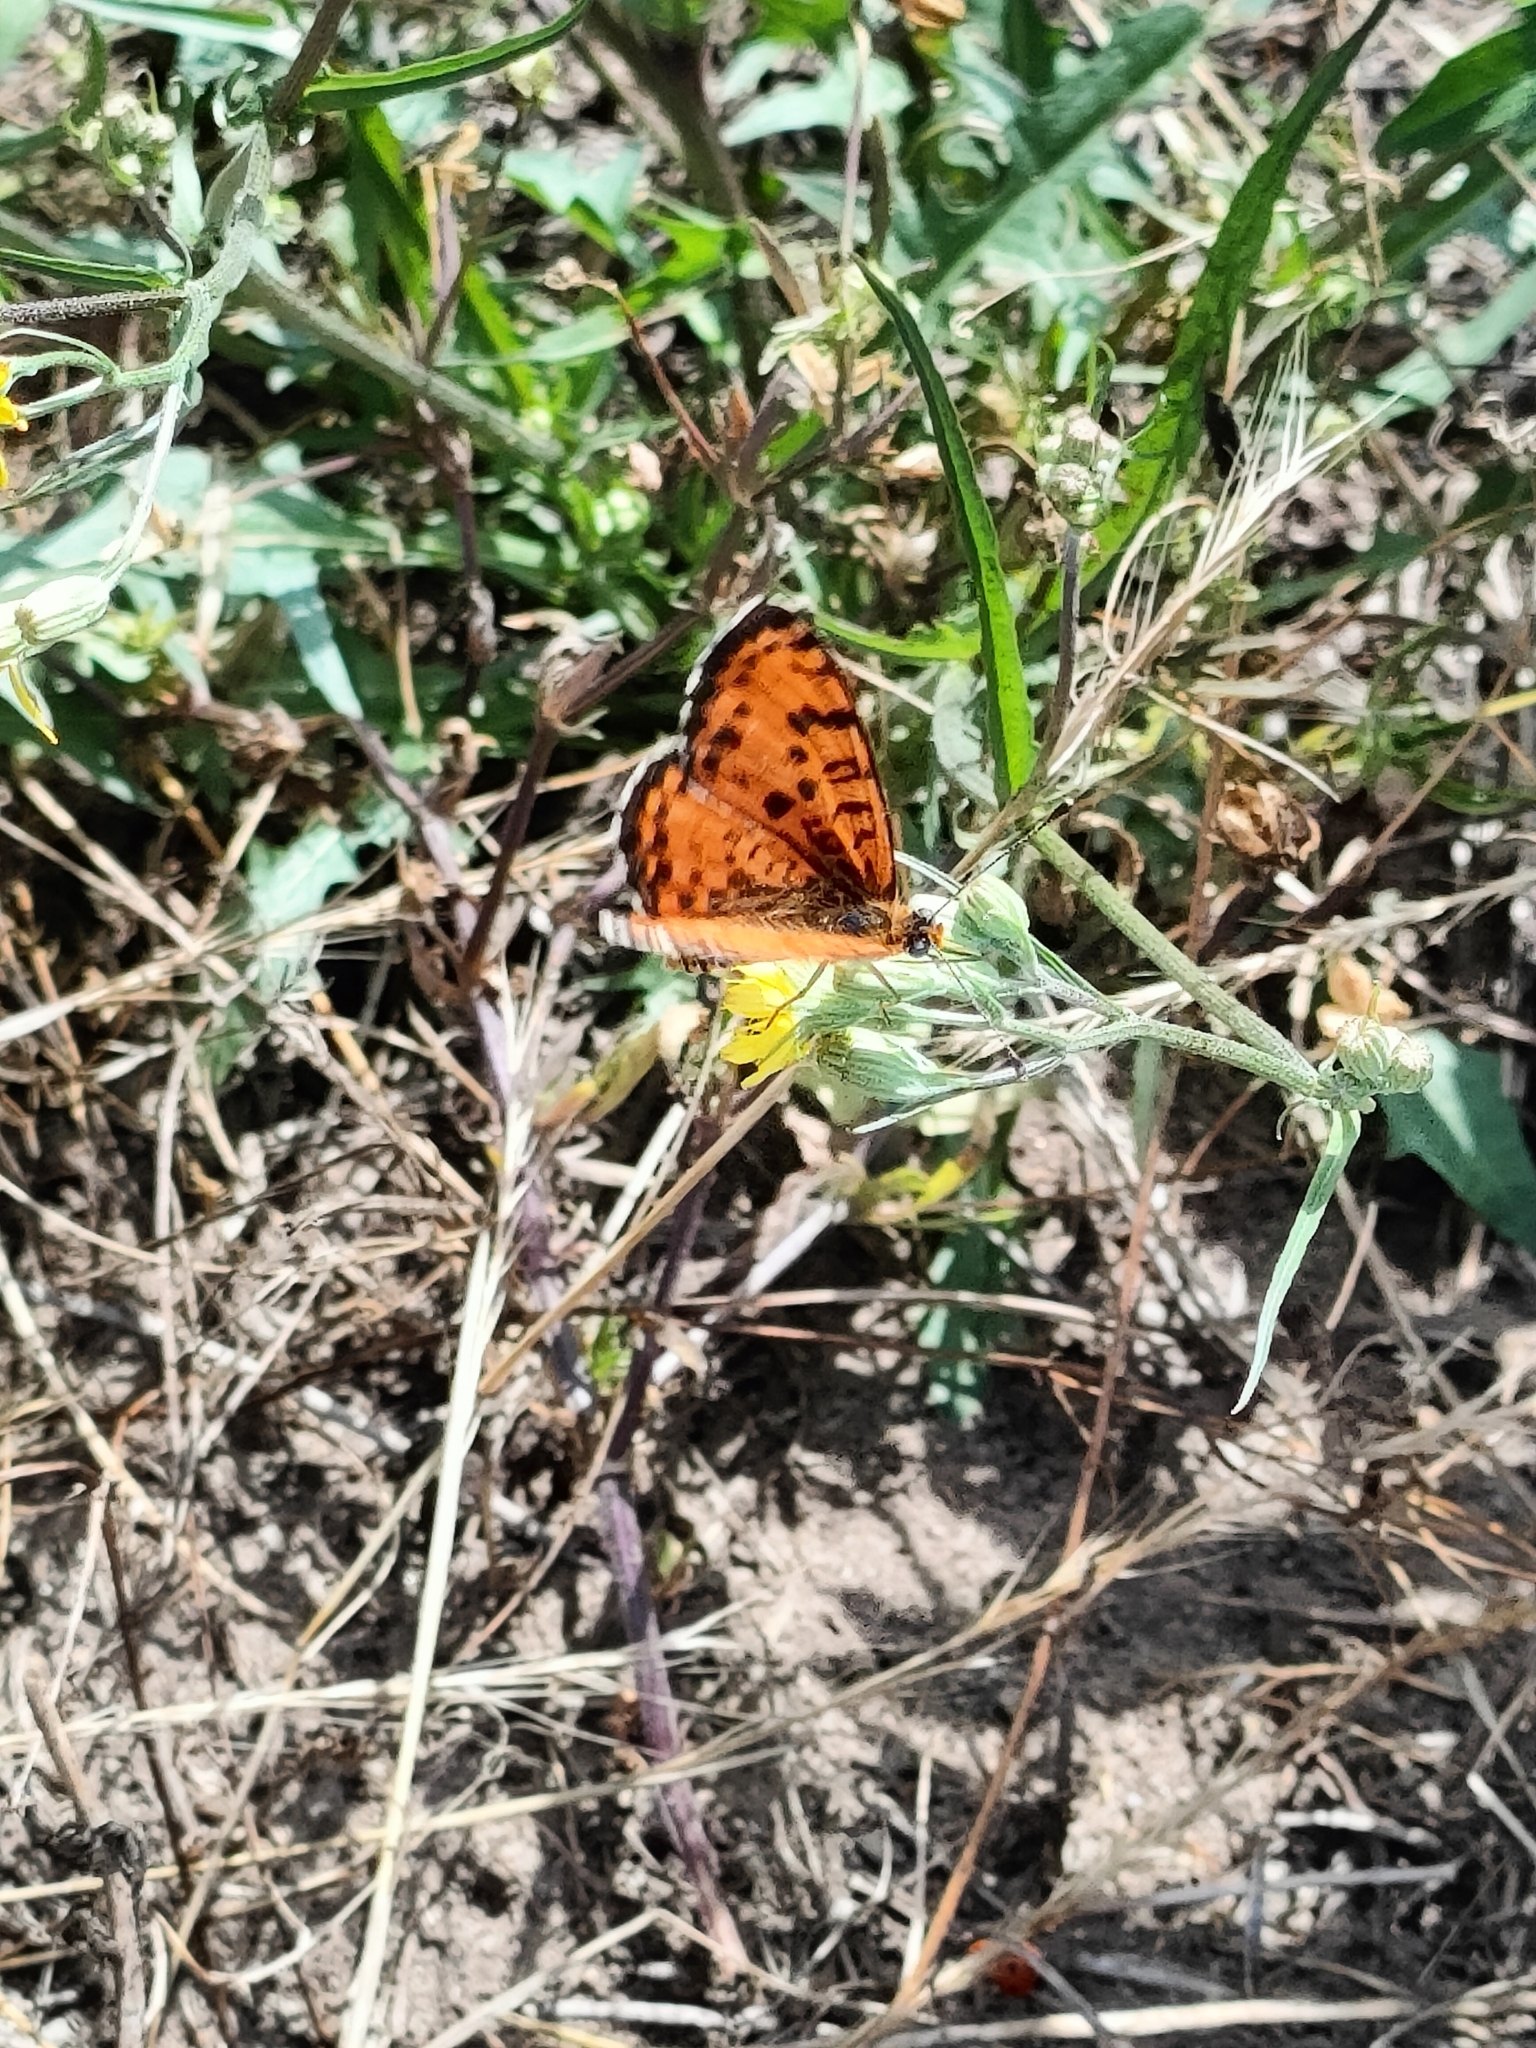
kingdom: Animalia
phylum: Arthropoda
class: Insecta
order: Lepidoptera
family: Nymphalidae
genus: Melitaea
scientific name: Melitaea didyma
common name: Spotted fritillary
